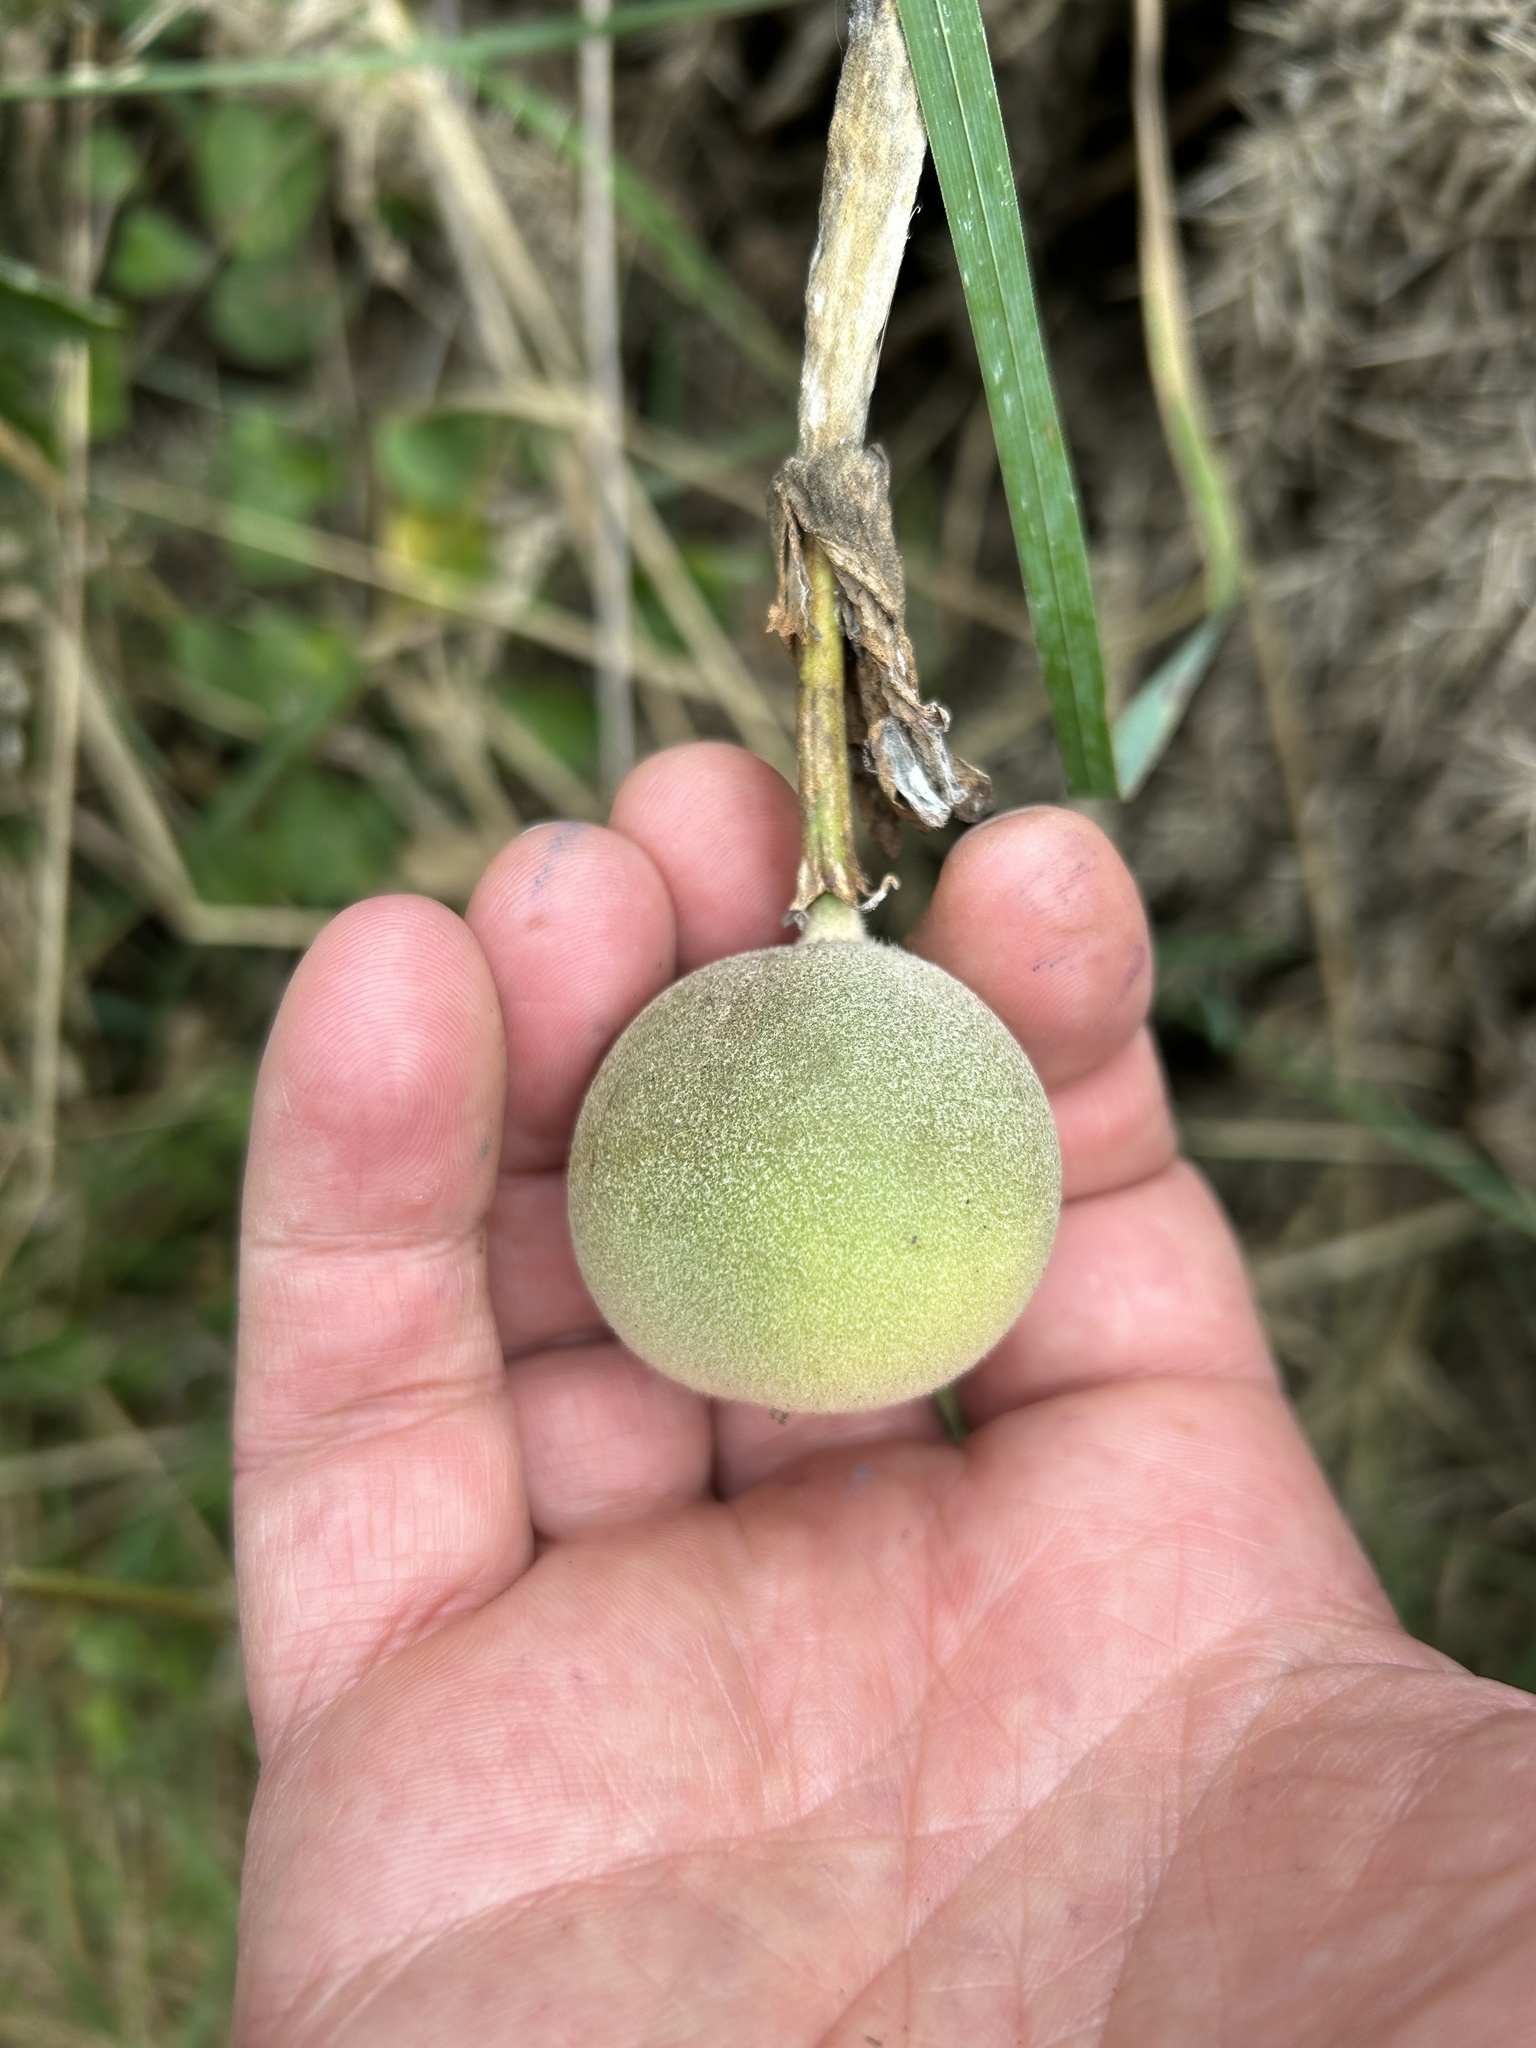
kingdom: Plantae
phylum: Tracheophyta
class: Magnoliopsida
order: Malpighiales
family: Passifloraceae
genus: Passiflora
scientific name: Passiflora pinnatistipula
